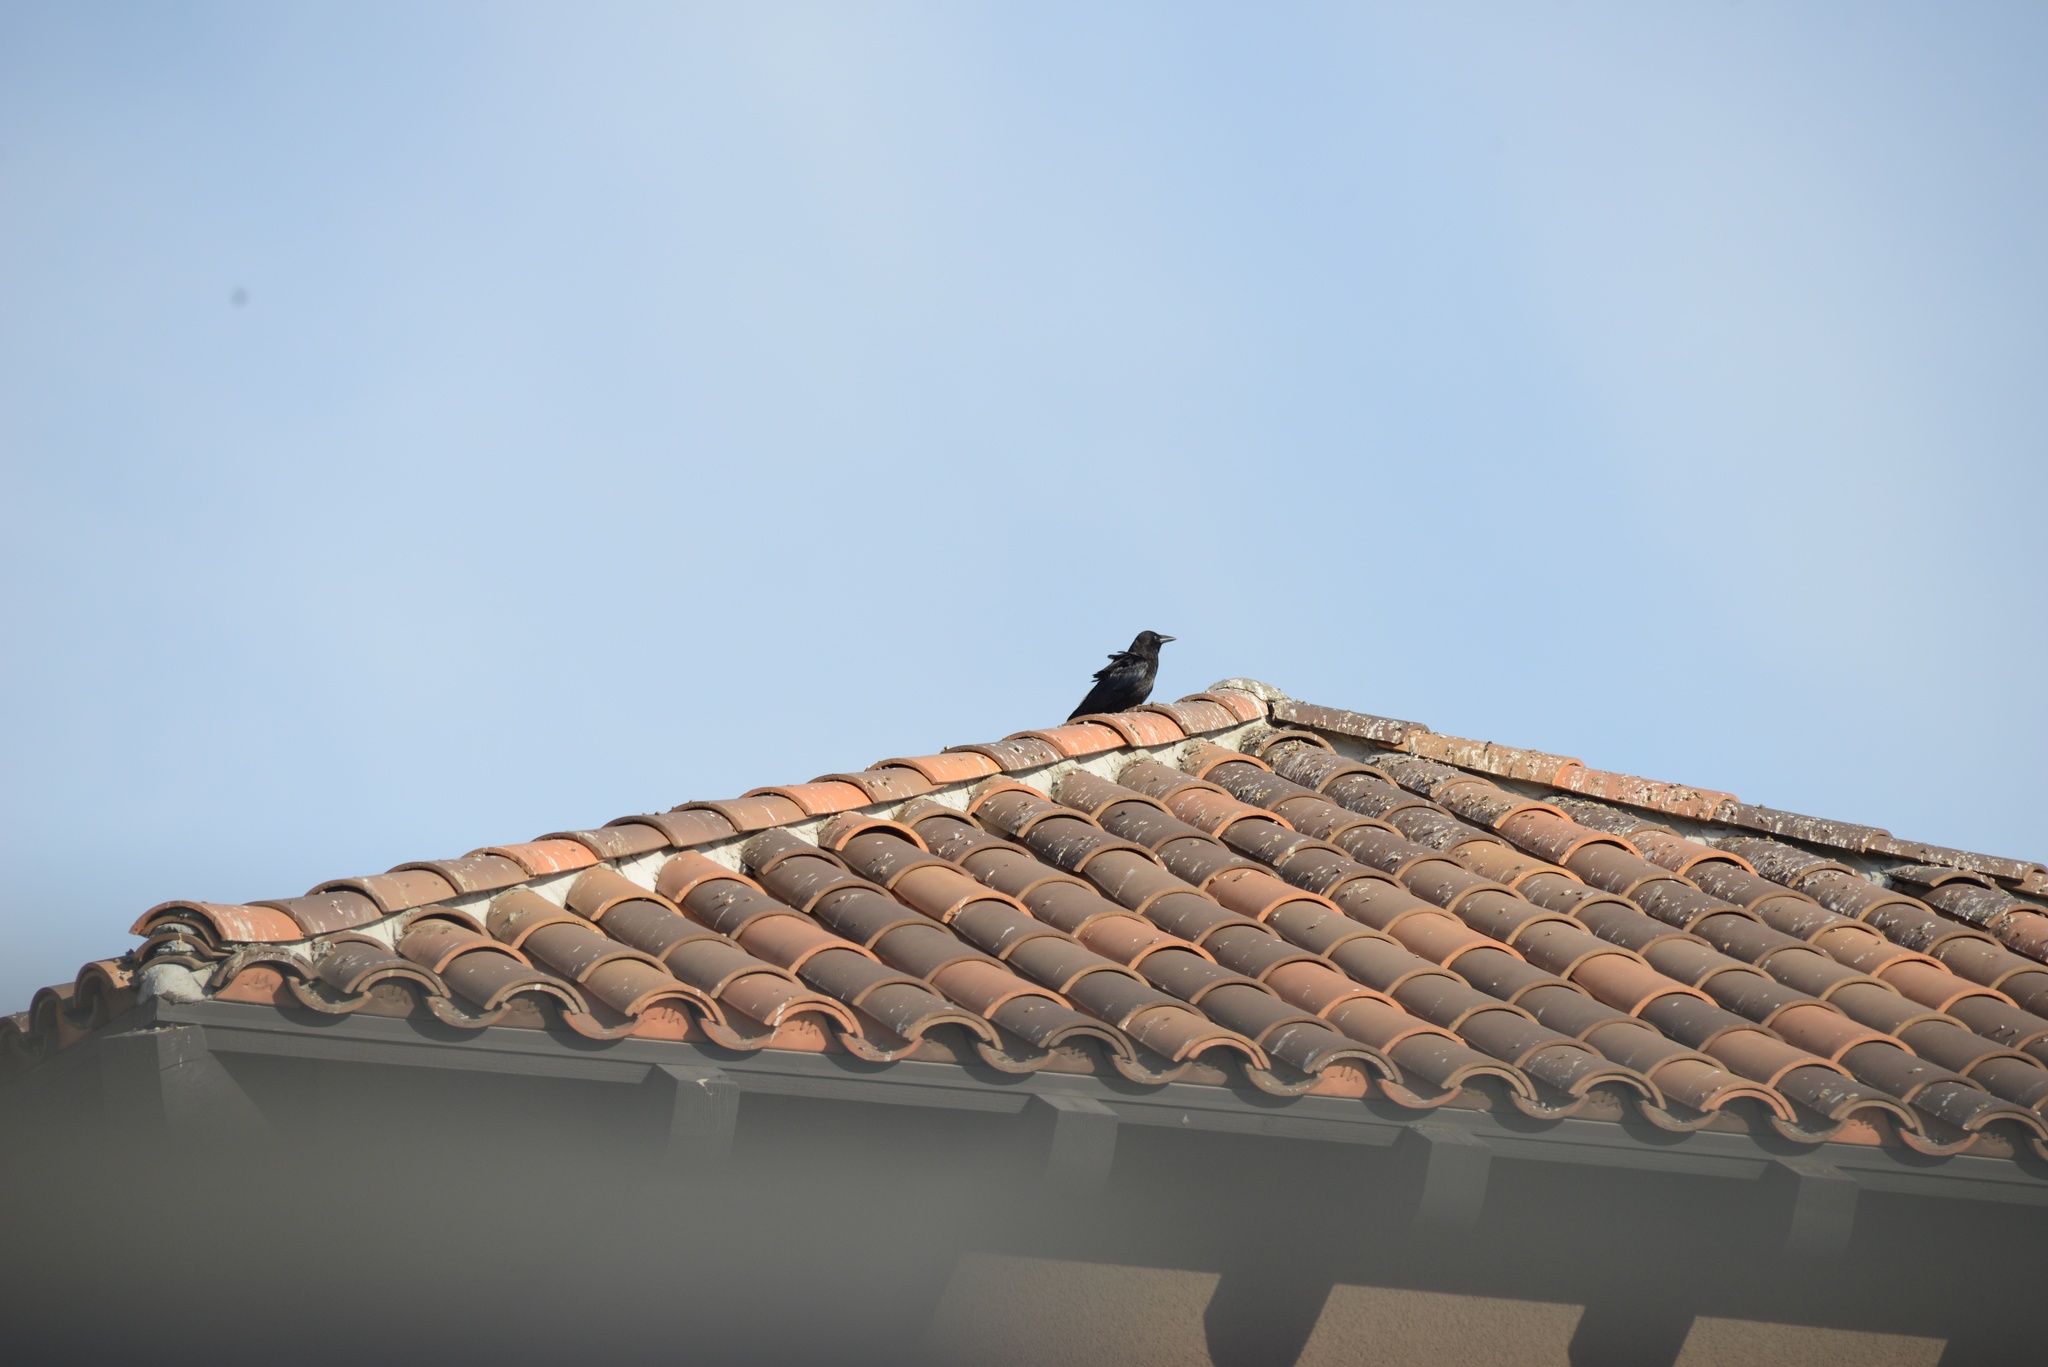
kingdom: Animalia
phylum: Chordata
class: Aves
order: Passeriformes
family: Corvidae
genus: Corvus
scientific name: Corvus brachyrhynchos
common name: American crow
